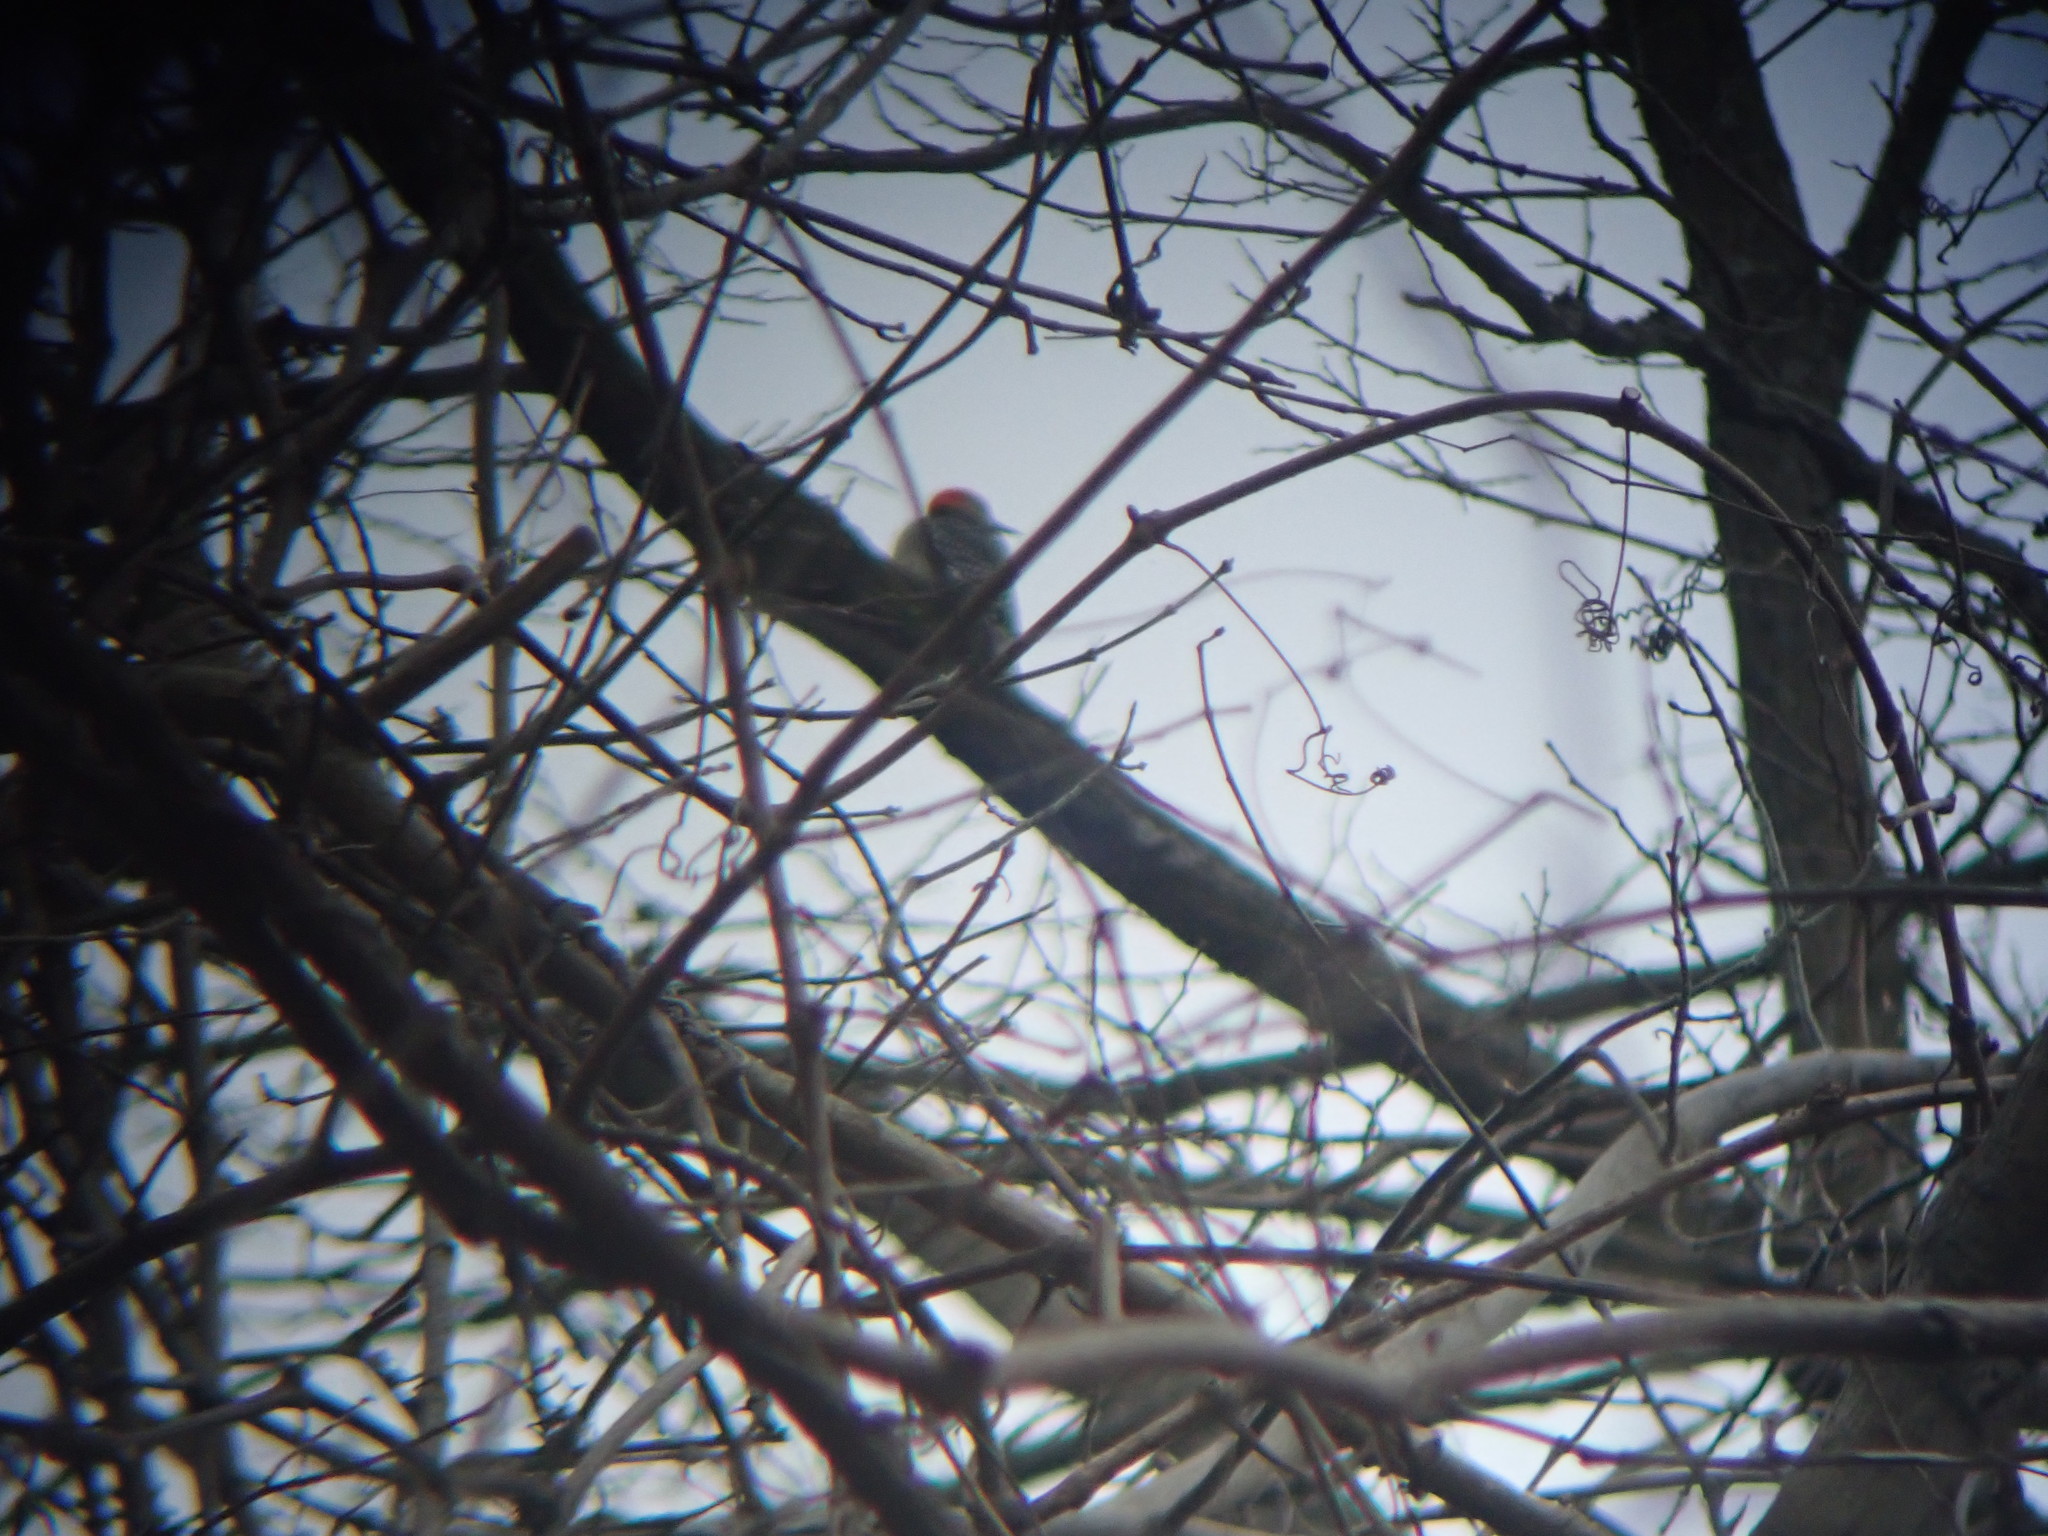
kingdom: Animalia
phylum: Chordata
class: Aves
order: Piciformes
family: Picidae
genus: Melanerpes
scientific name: Melanerpes carolinus
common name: Red-bellied woodpecker
